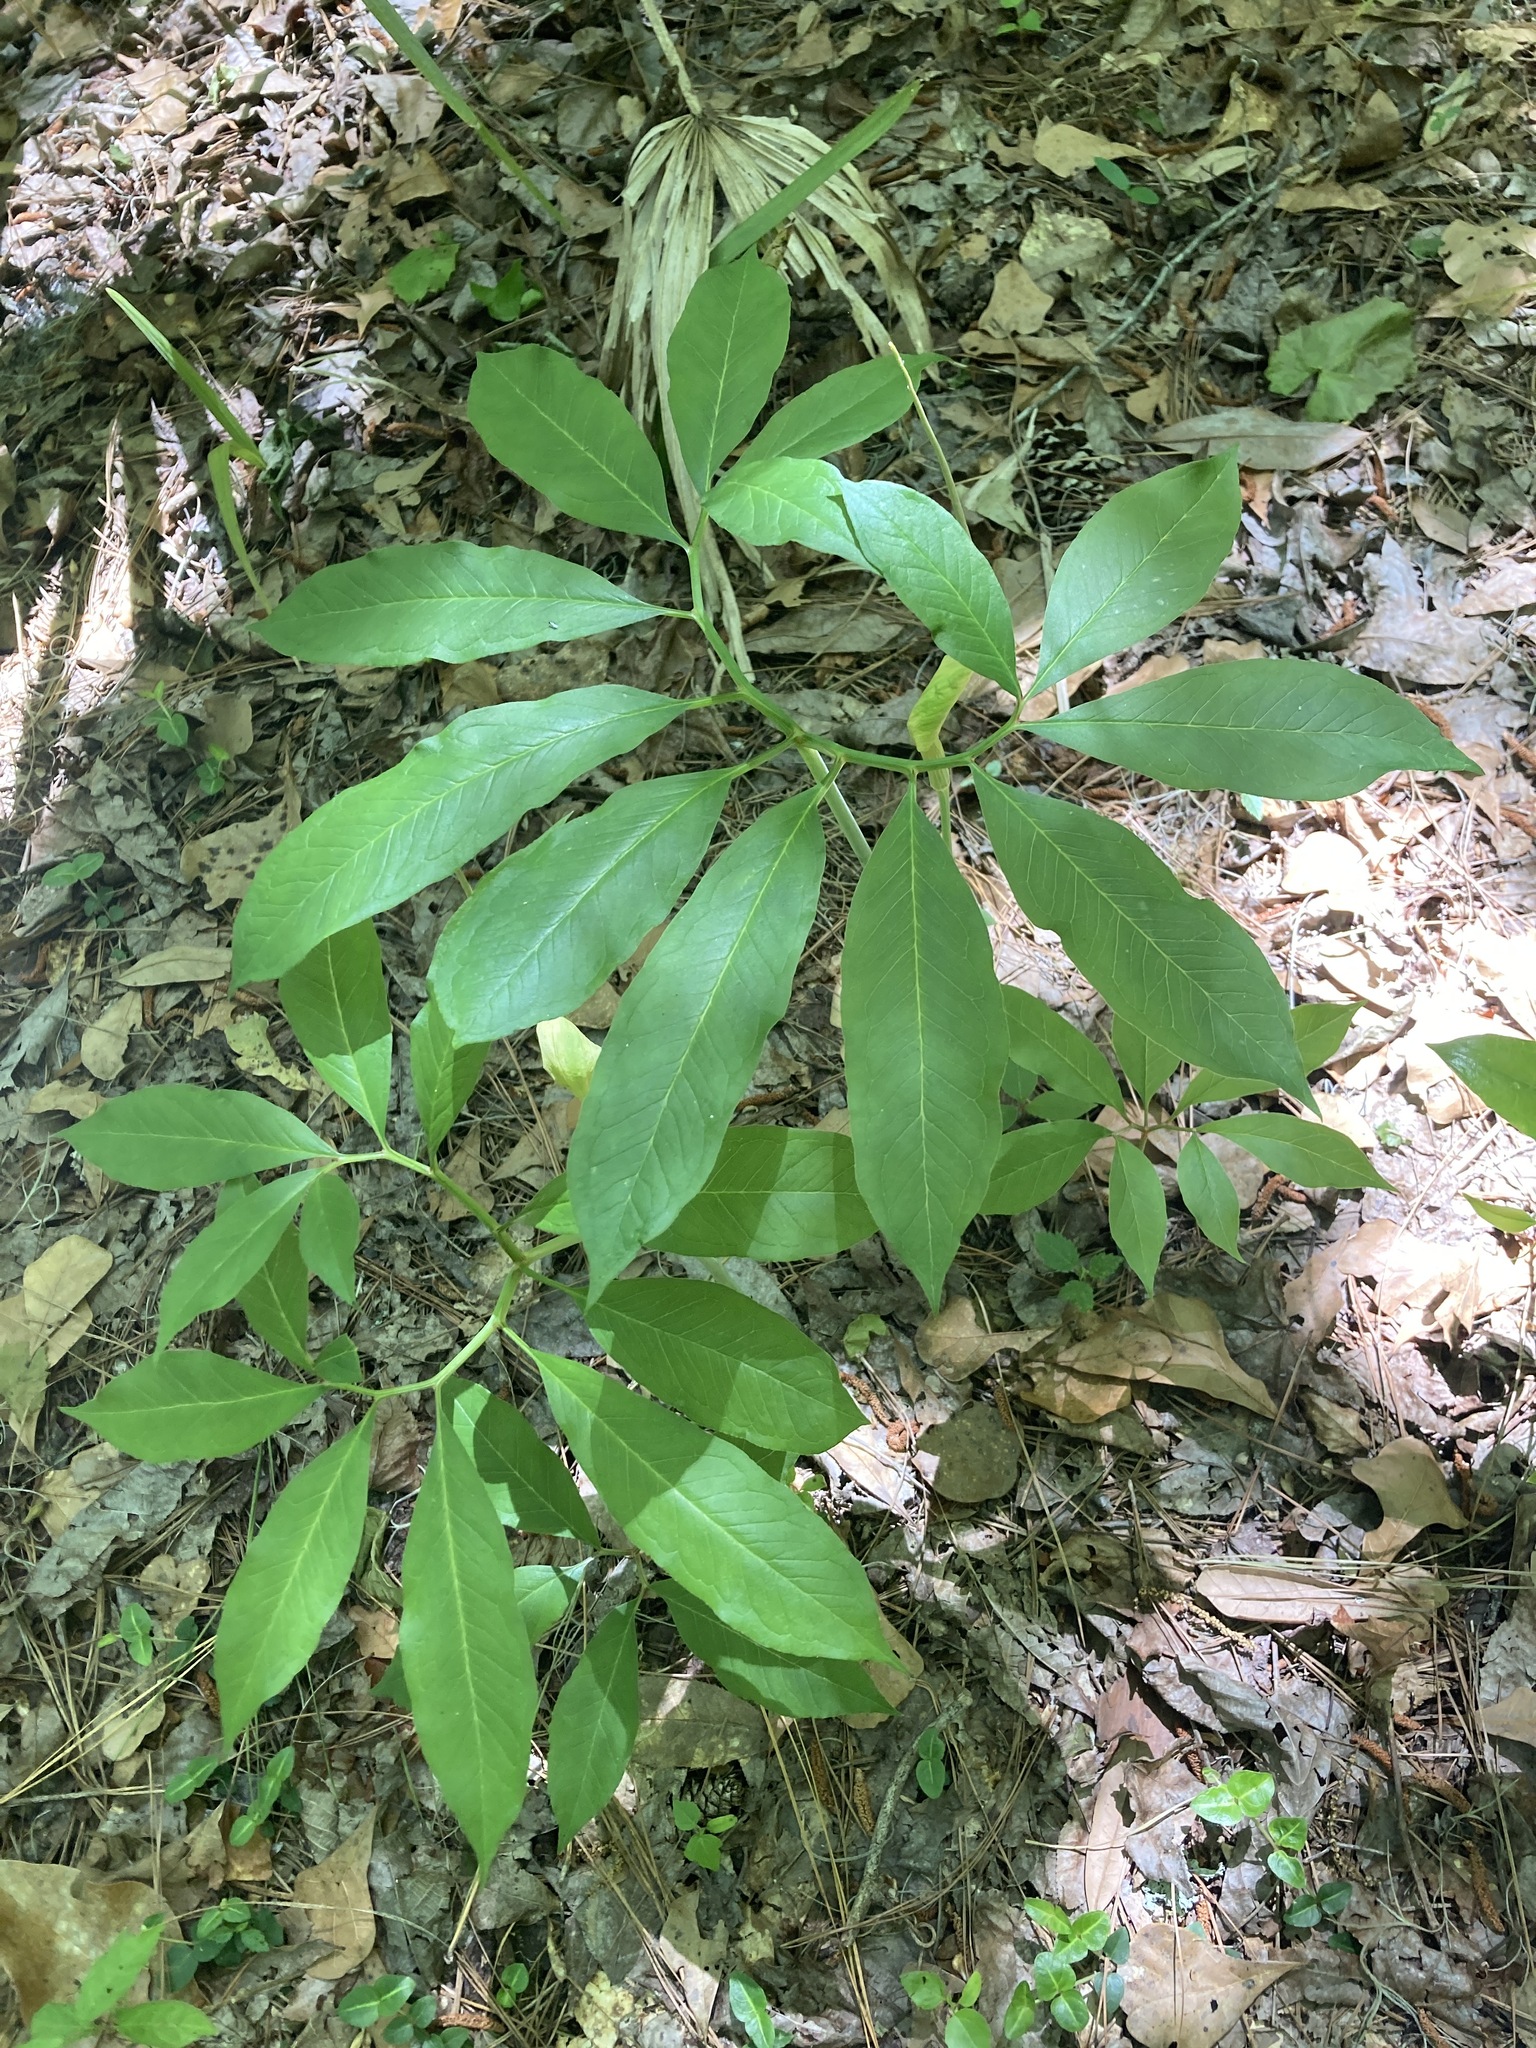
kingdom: Plantae
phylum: Tracheophyta
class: Liliopsida
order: Alismatales
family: Araceae
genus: Arisaema
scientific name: Arisaema dracontium
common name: Dragon-arum
